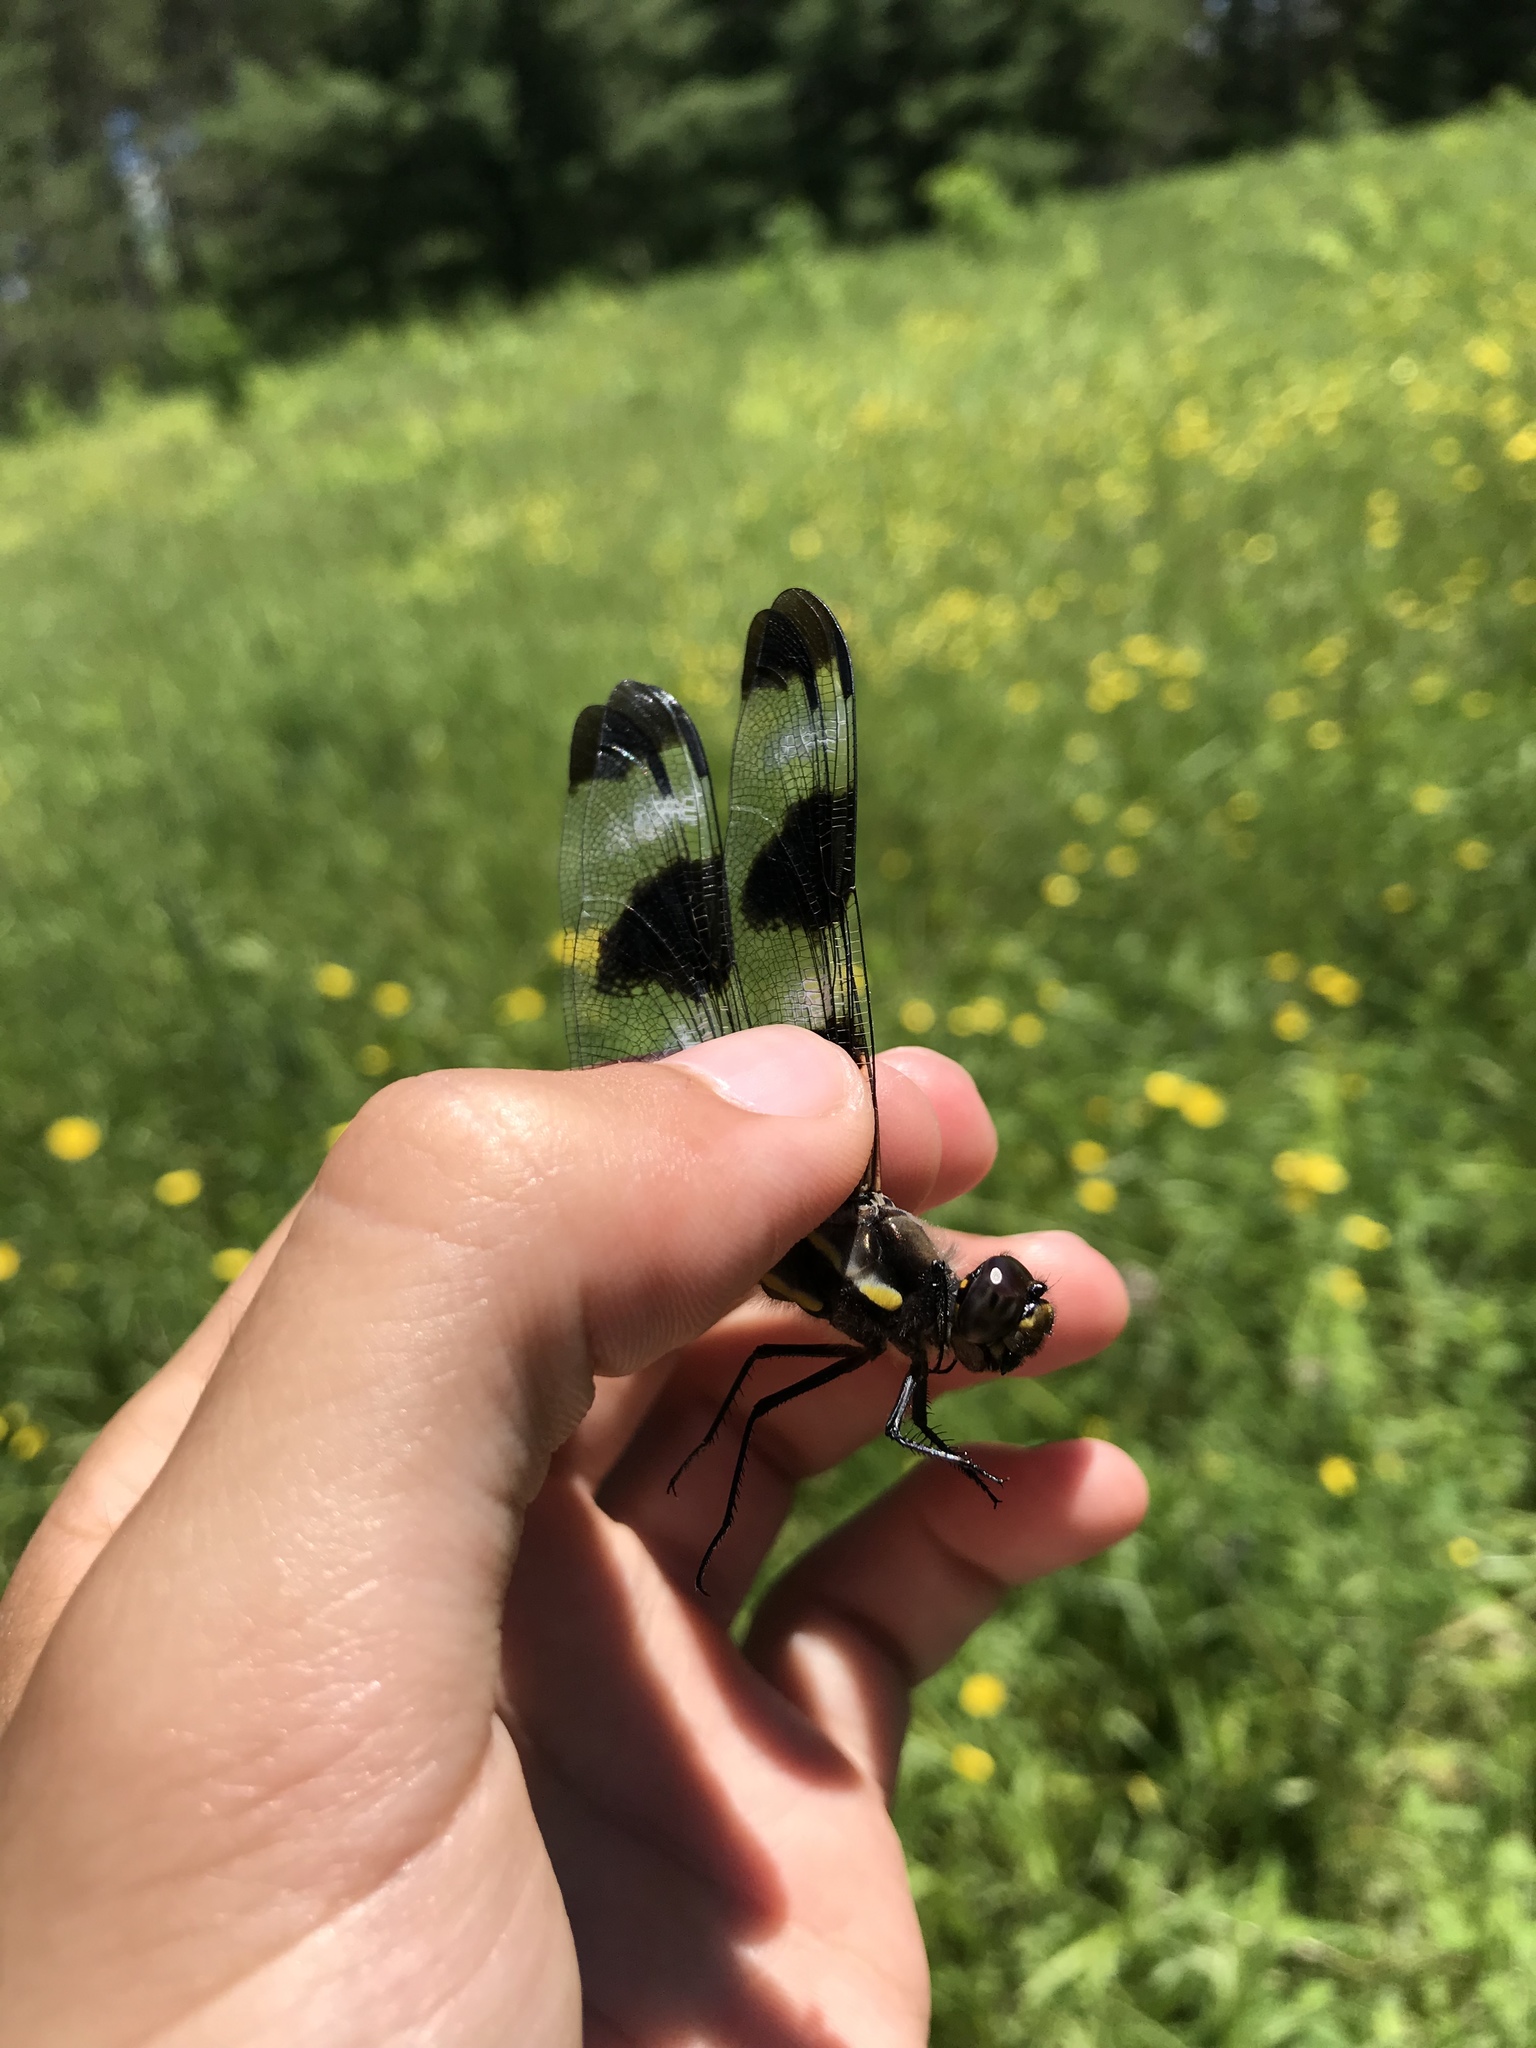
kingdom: Animalia
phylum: Arthropoda
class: Insecta
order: Odonata
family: Libellulidae
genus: Libellula
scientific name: Libellula pulchella
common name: Twelve-spotted skimmer
